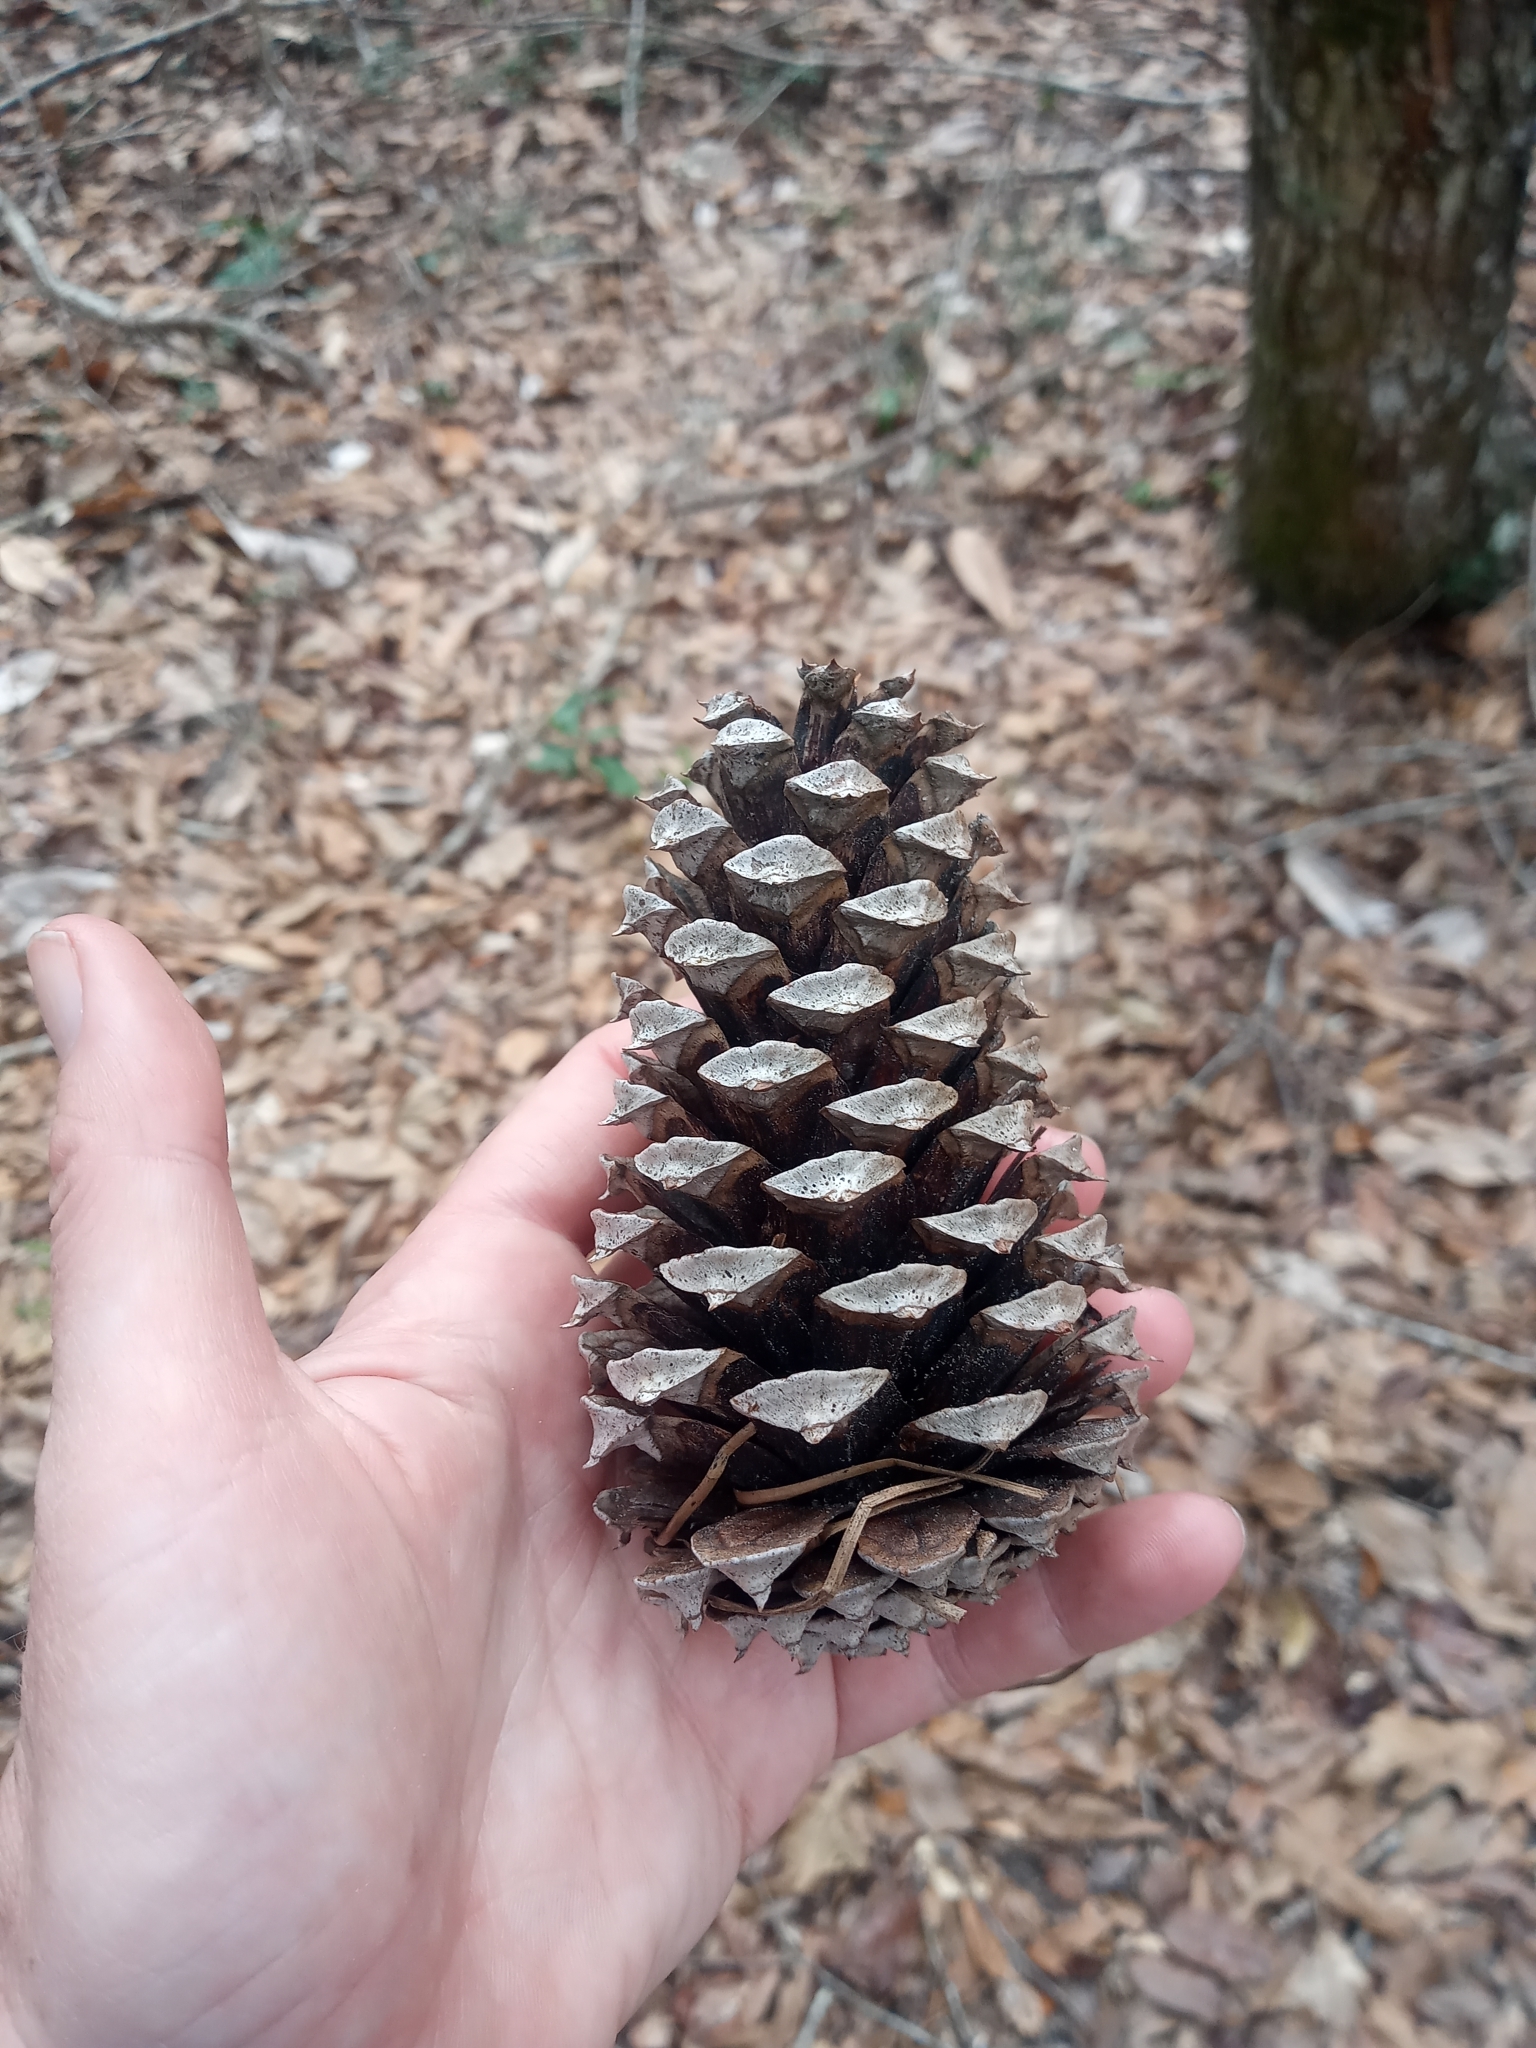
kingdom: Plantae
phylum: Tracheophyta
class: Pinopsida
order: Pinales
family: Pinaceae
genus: Pinus
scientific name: Pinus taeda
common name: Loblolly pine
